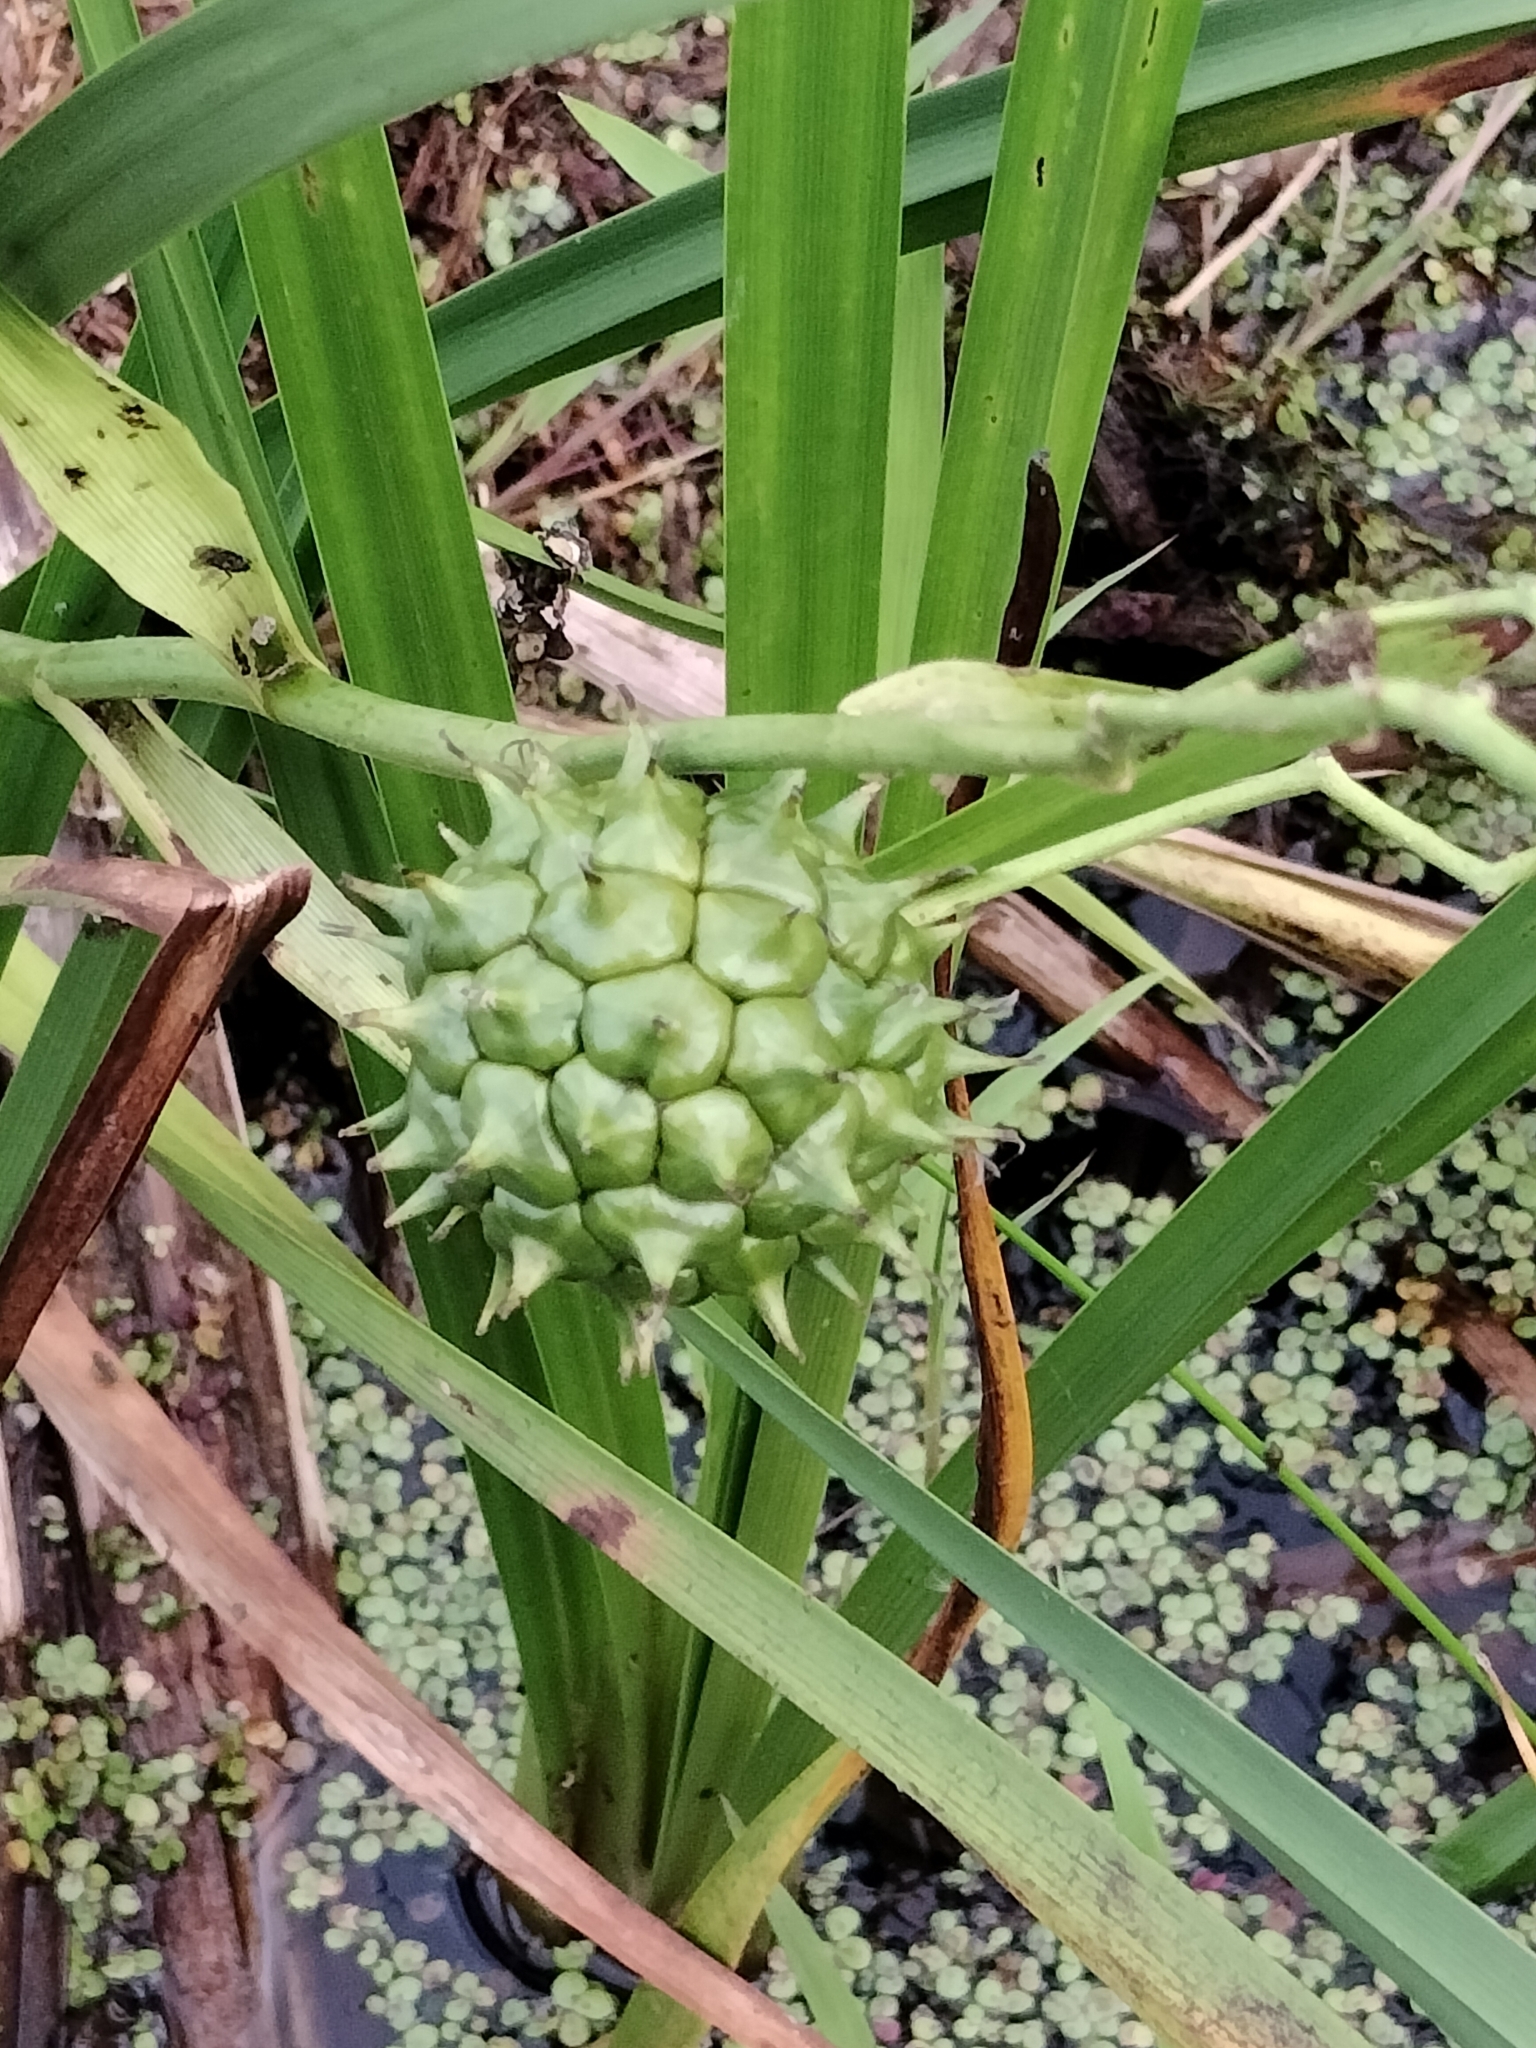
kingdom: Plantae
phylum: Tracheophyta
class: Liliopsida
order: Poales
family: Typhaceae
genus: Sparganium
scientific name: Sparganium eurycarpum
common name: Broad-fruited burreed
